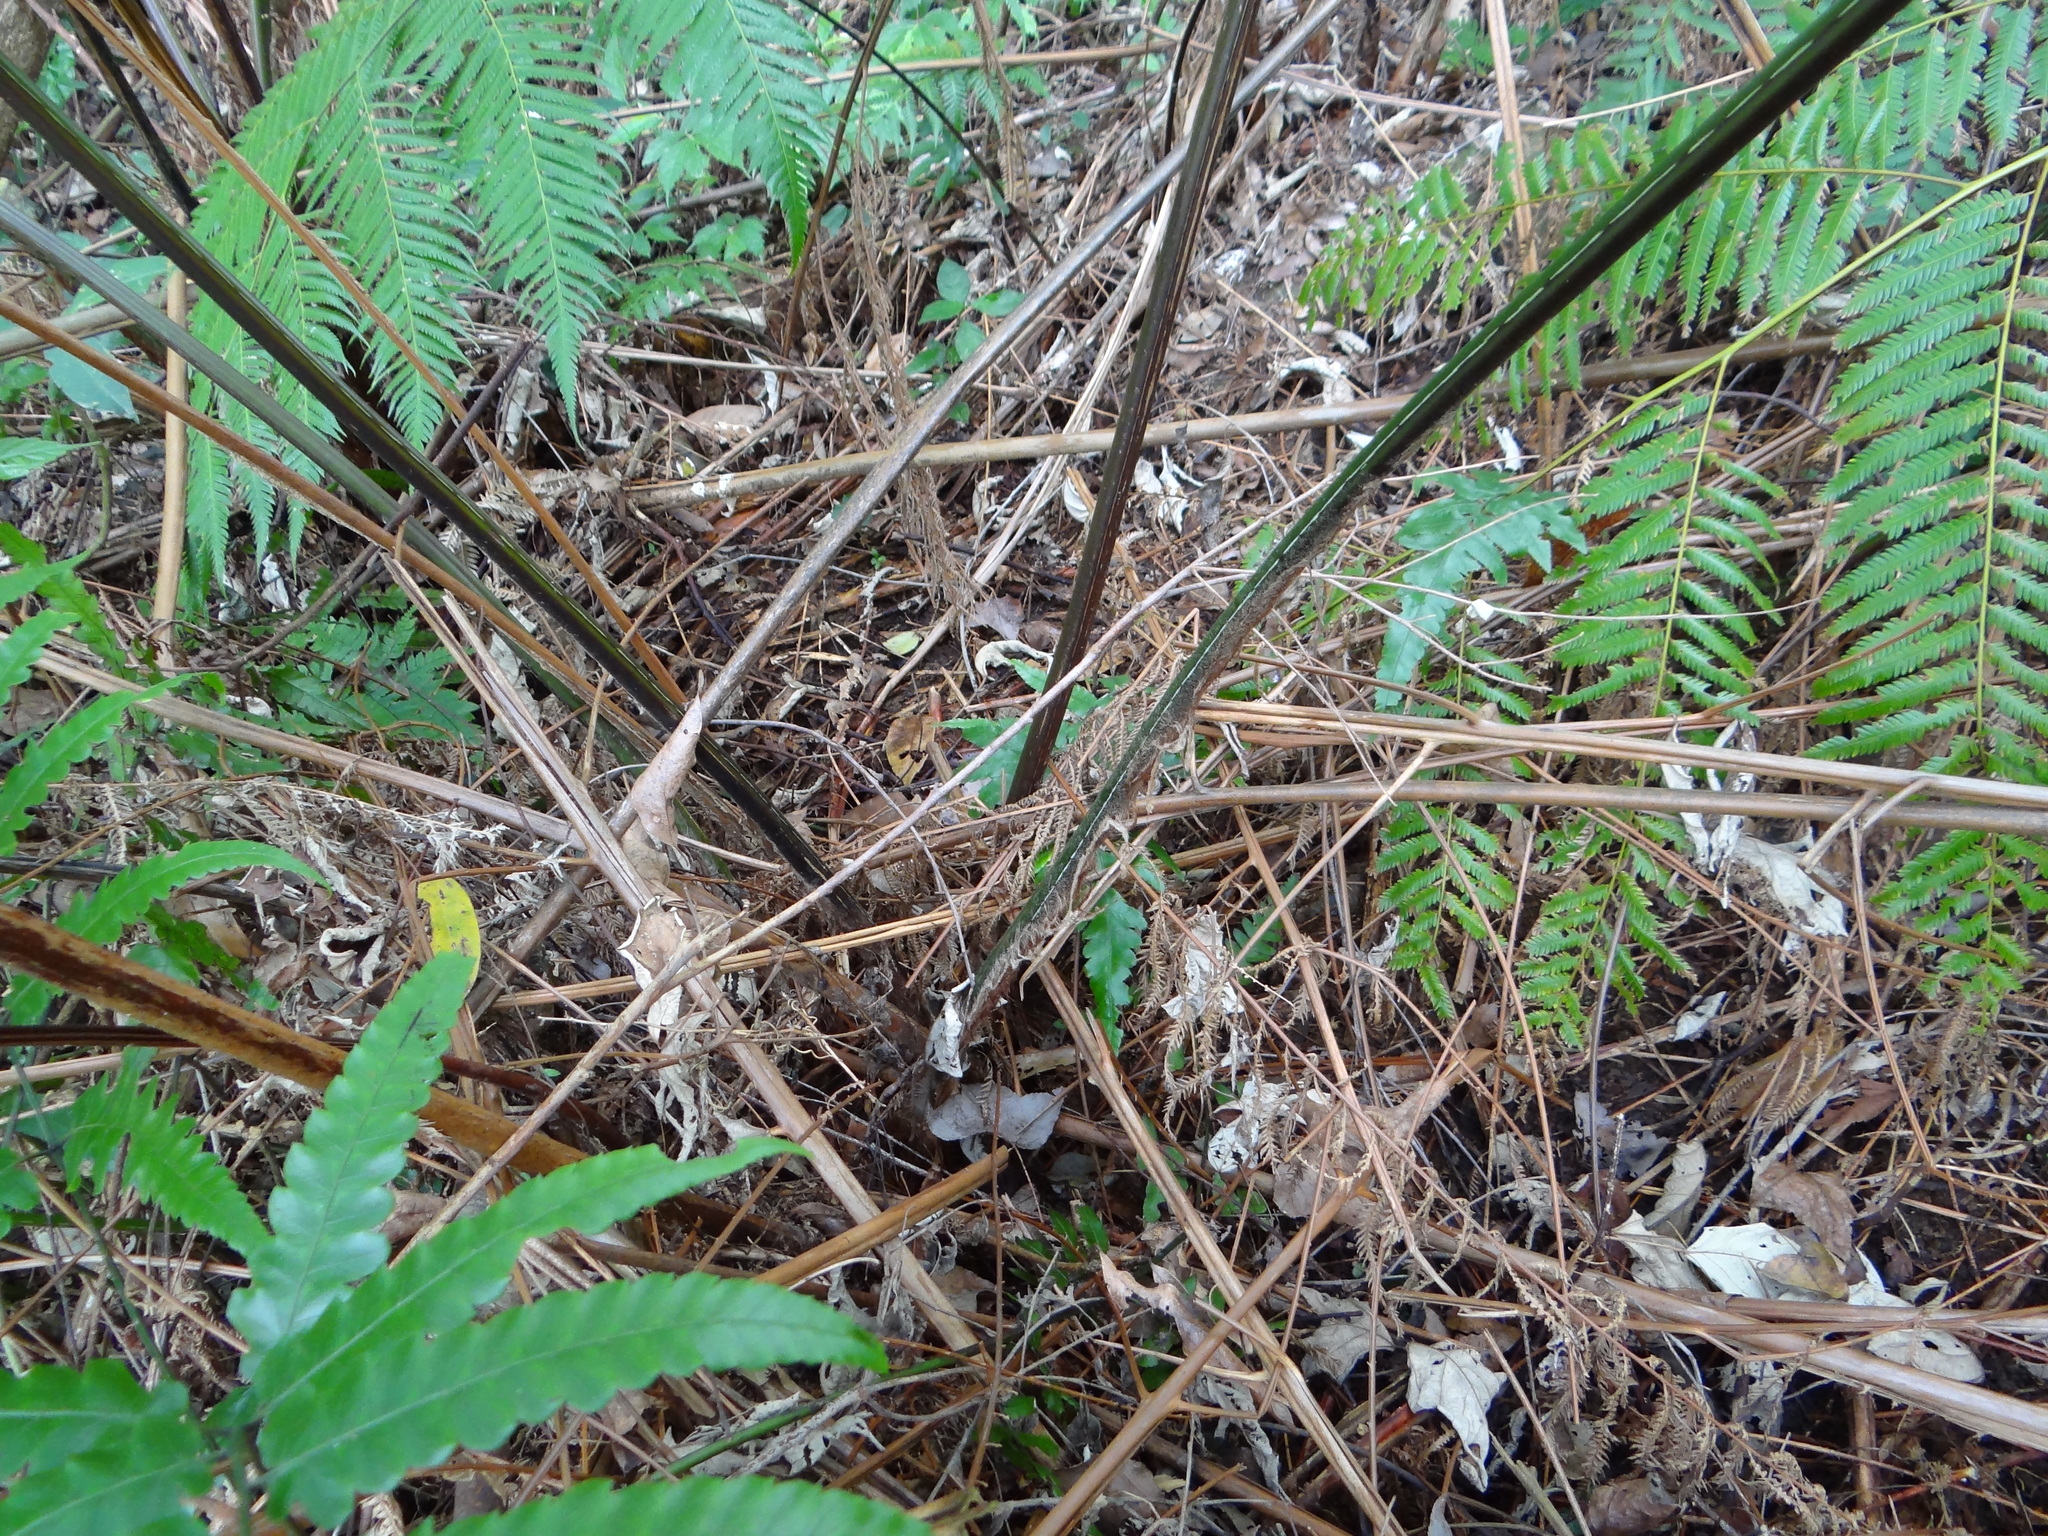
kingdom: Plantae
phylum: Tracheophyta
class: Polypodiopsida
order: Cyatheales
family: Cibotiaceae
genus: Cibotium
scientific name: Cibotium taiwanense
